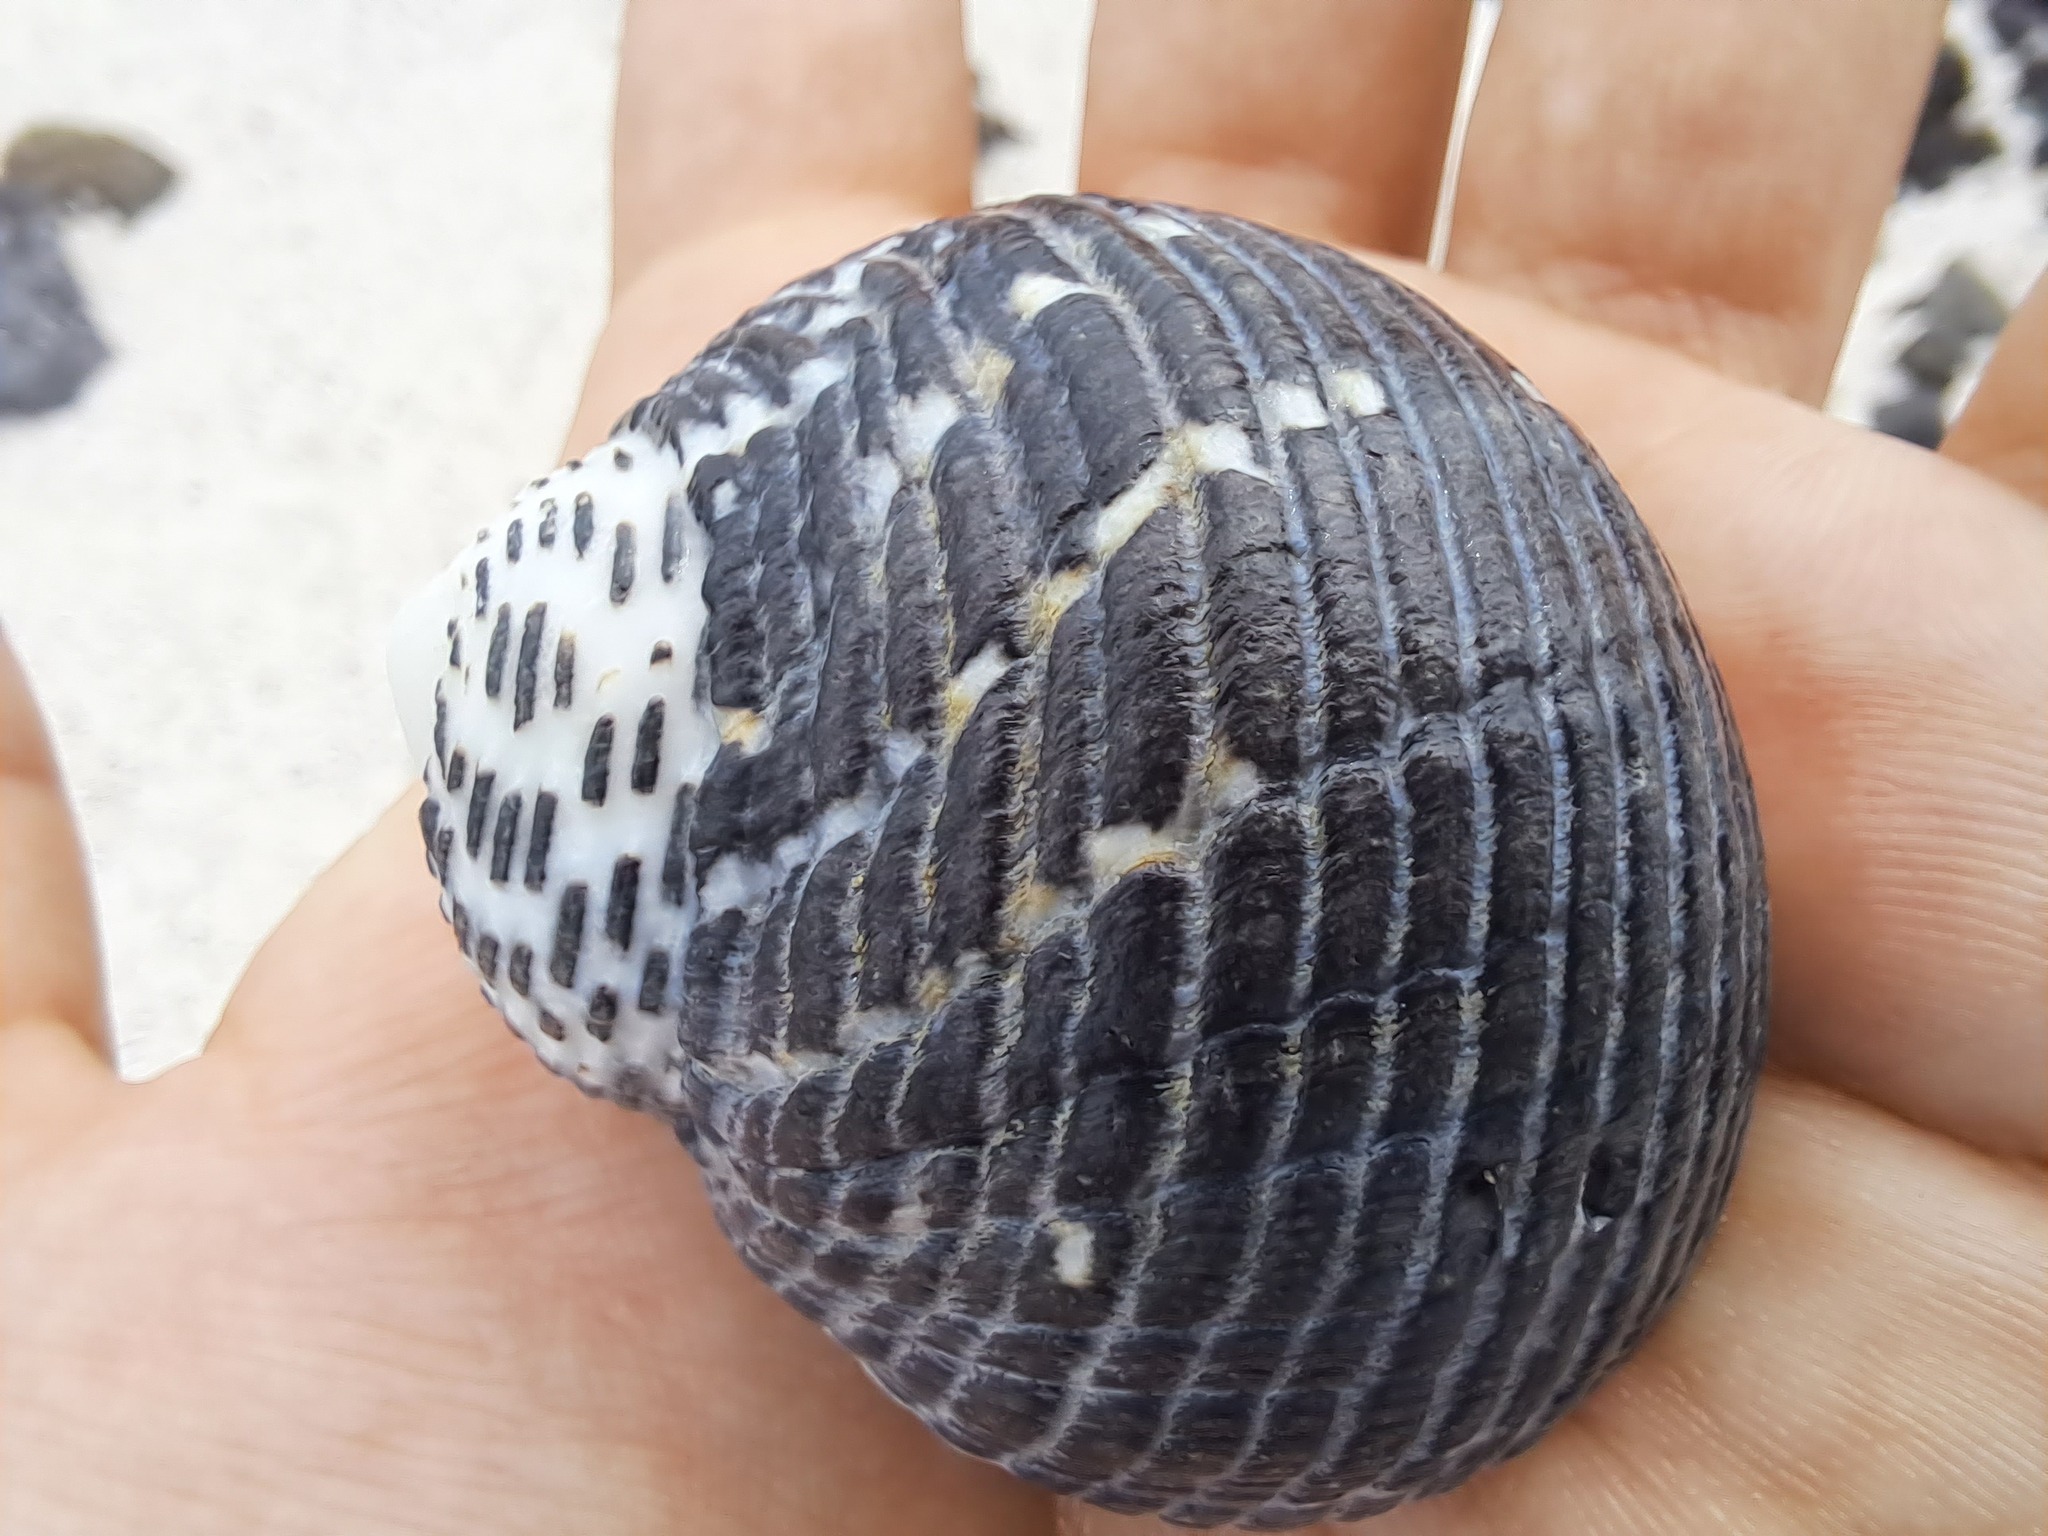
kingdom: Animalia
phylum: Mollusca
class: Gastropoda
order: Cycloneritida
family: Neritidae
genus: Nerita
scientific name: Nerita scabricosta
